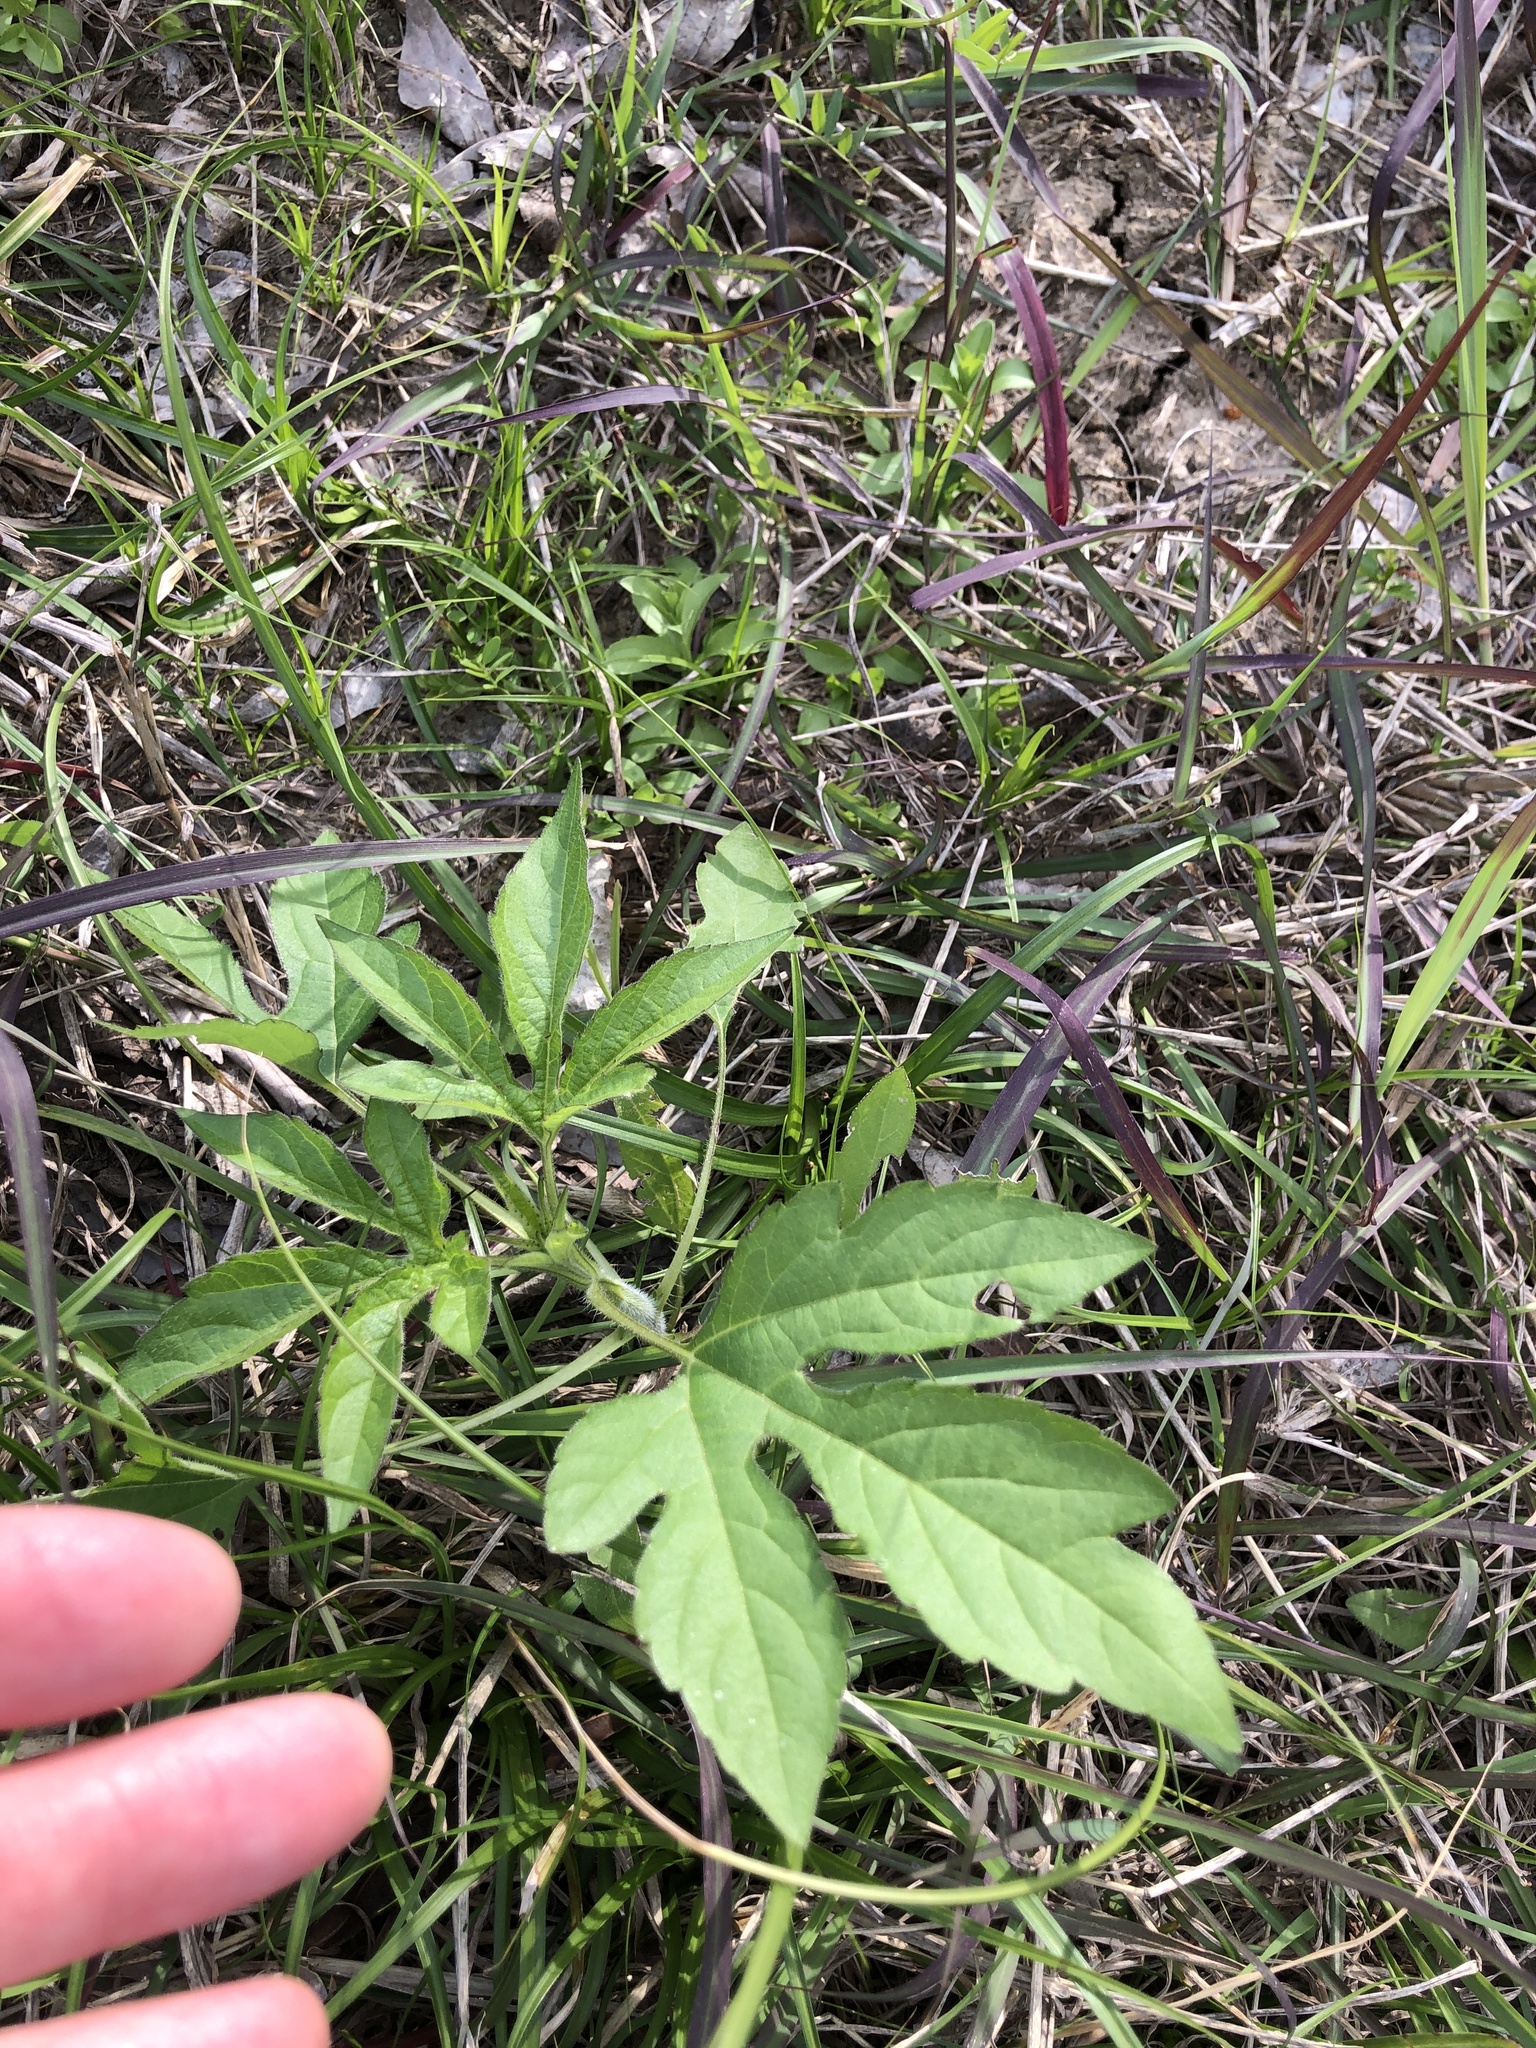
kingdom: Plantae
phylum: Tracheophyta
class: Magnoliopsida
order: Asterales
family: Asteraceae
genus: Ambrosia
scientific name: Ambrosia trifida
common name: Giant ragweed
